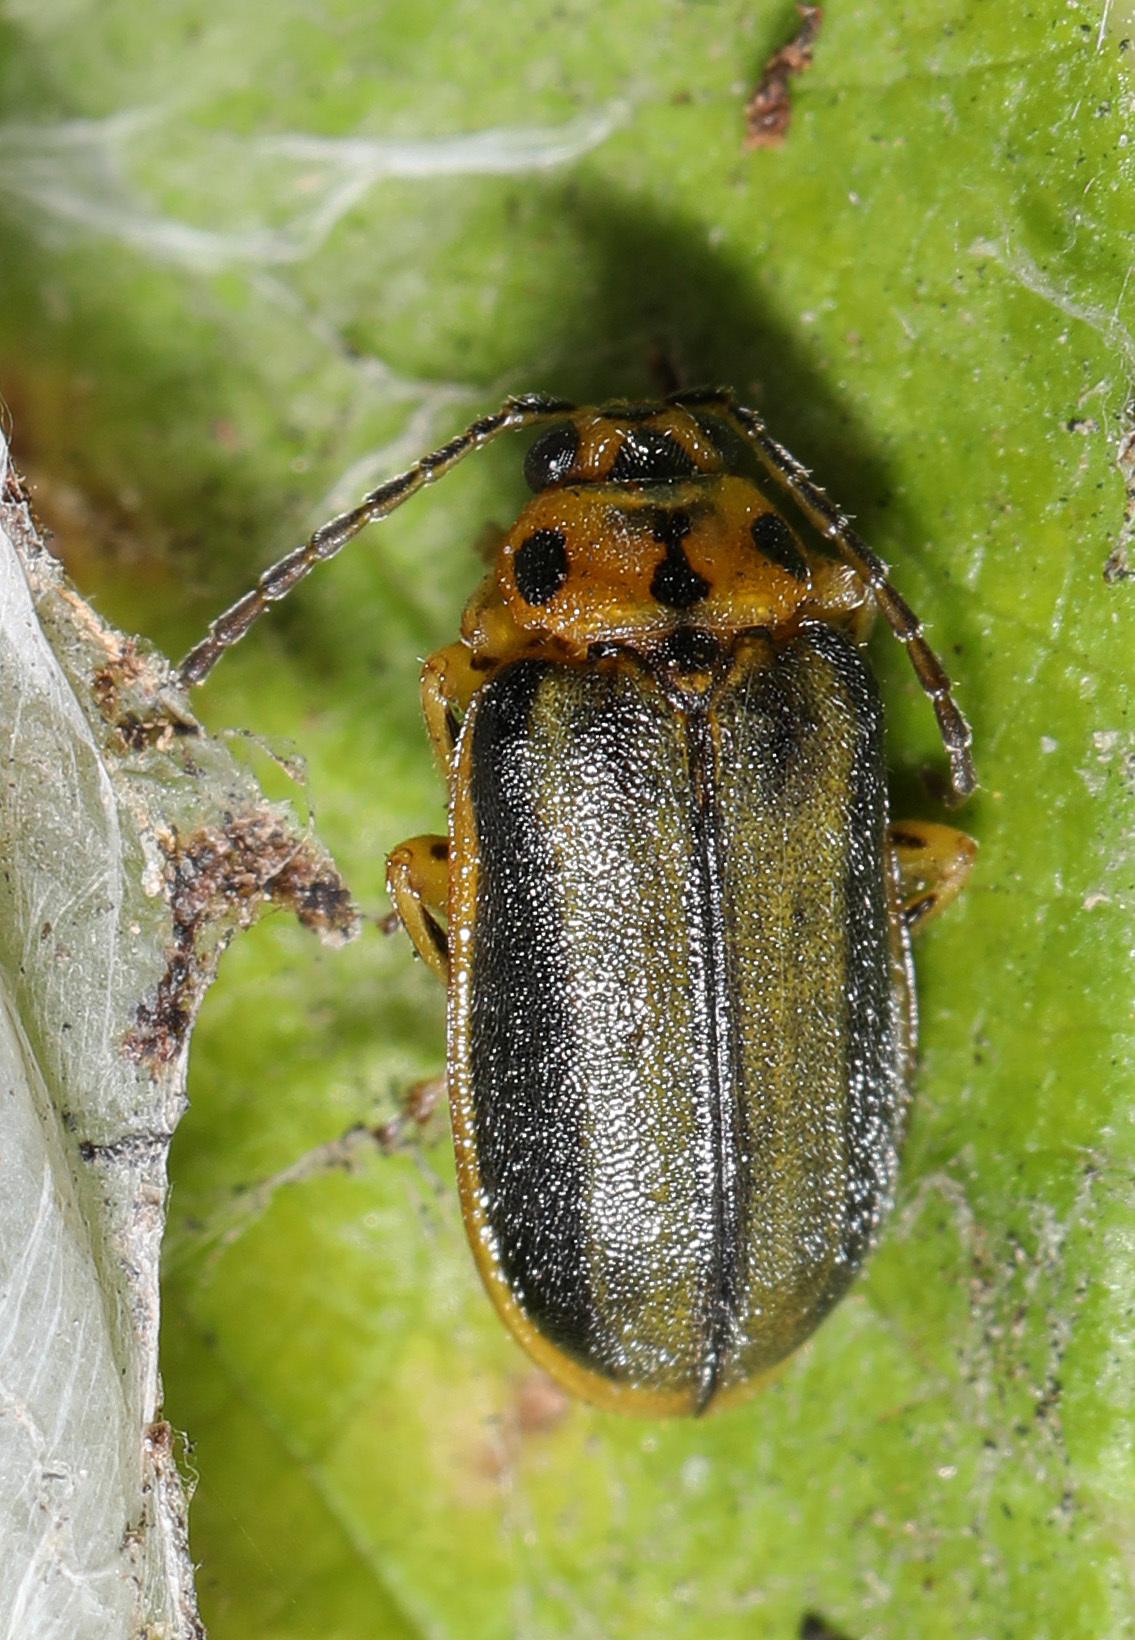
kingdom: Animalia
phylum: Arthropoda
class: Insecta
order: Coleoptera
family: Chrysomelidae
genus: Xanthogaleruca
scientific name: Xanthogaleruca luteola
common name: Elm leaf beetle
